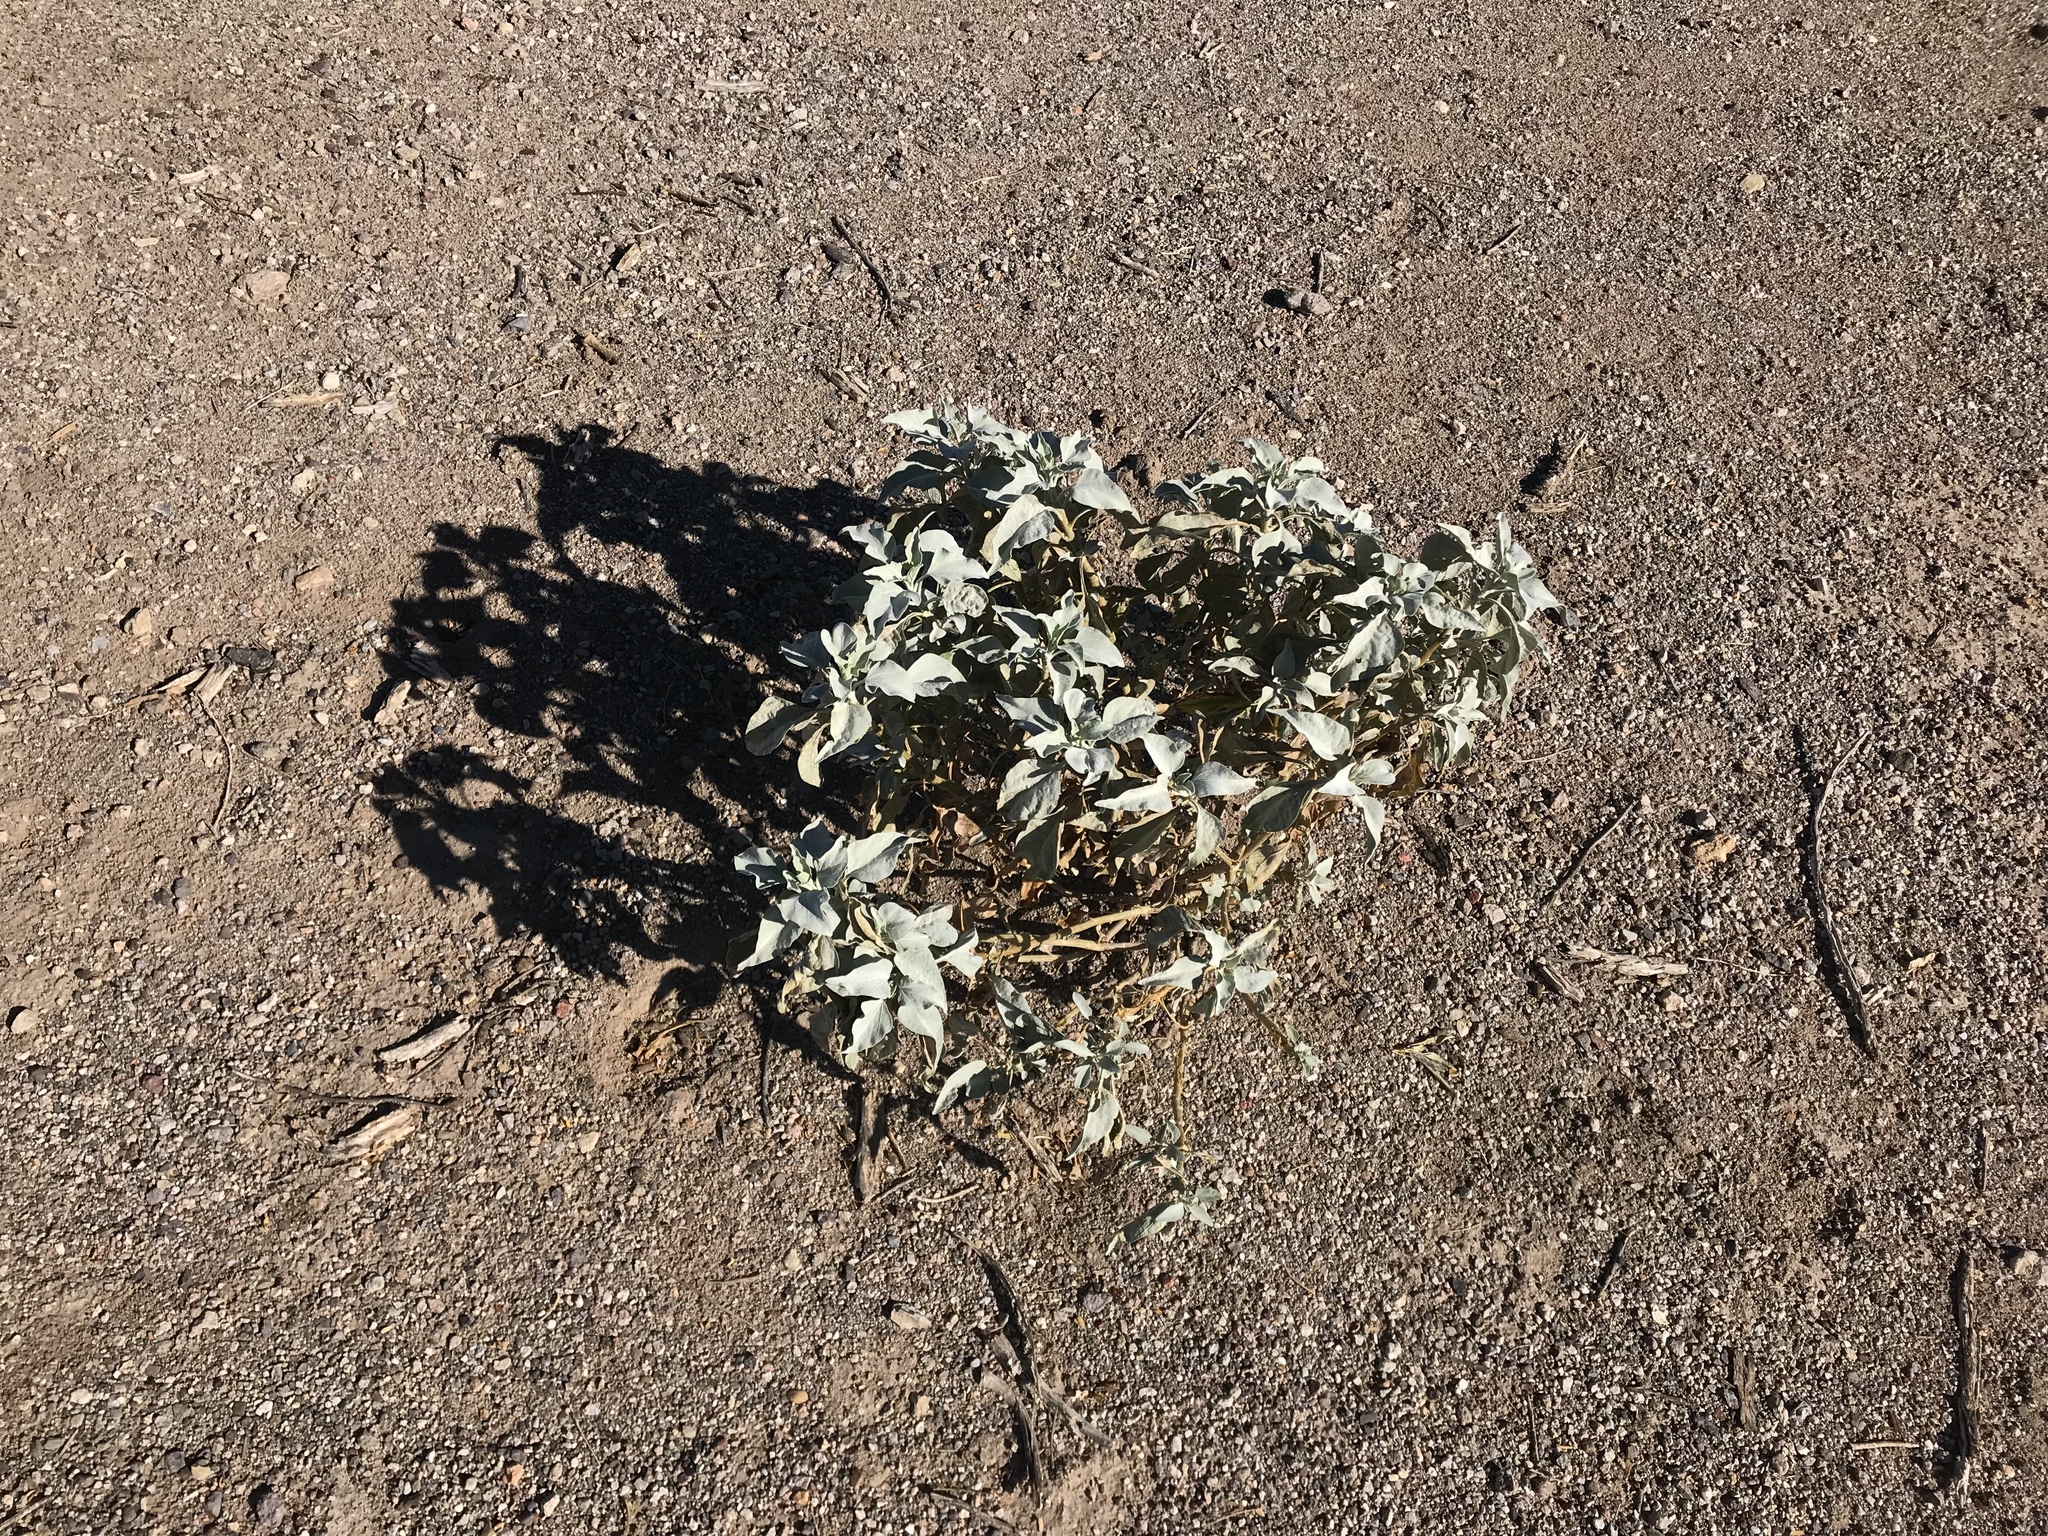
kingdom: Plantae
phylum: Tracheophyta
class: Magnoliopsida
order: Asterales
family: Asteraceae
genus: Encelia
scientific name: Encelia farinosa
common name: Brittlebush
